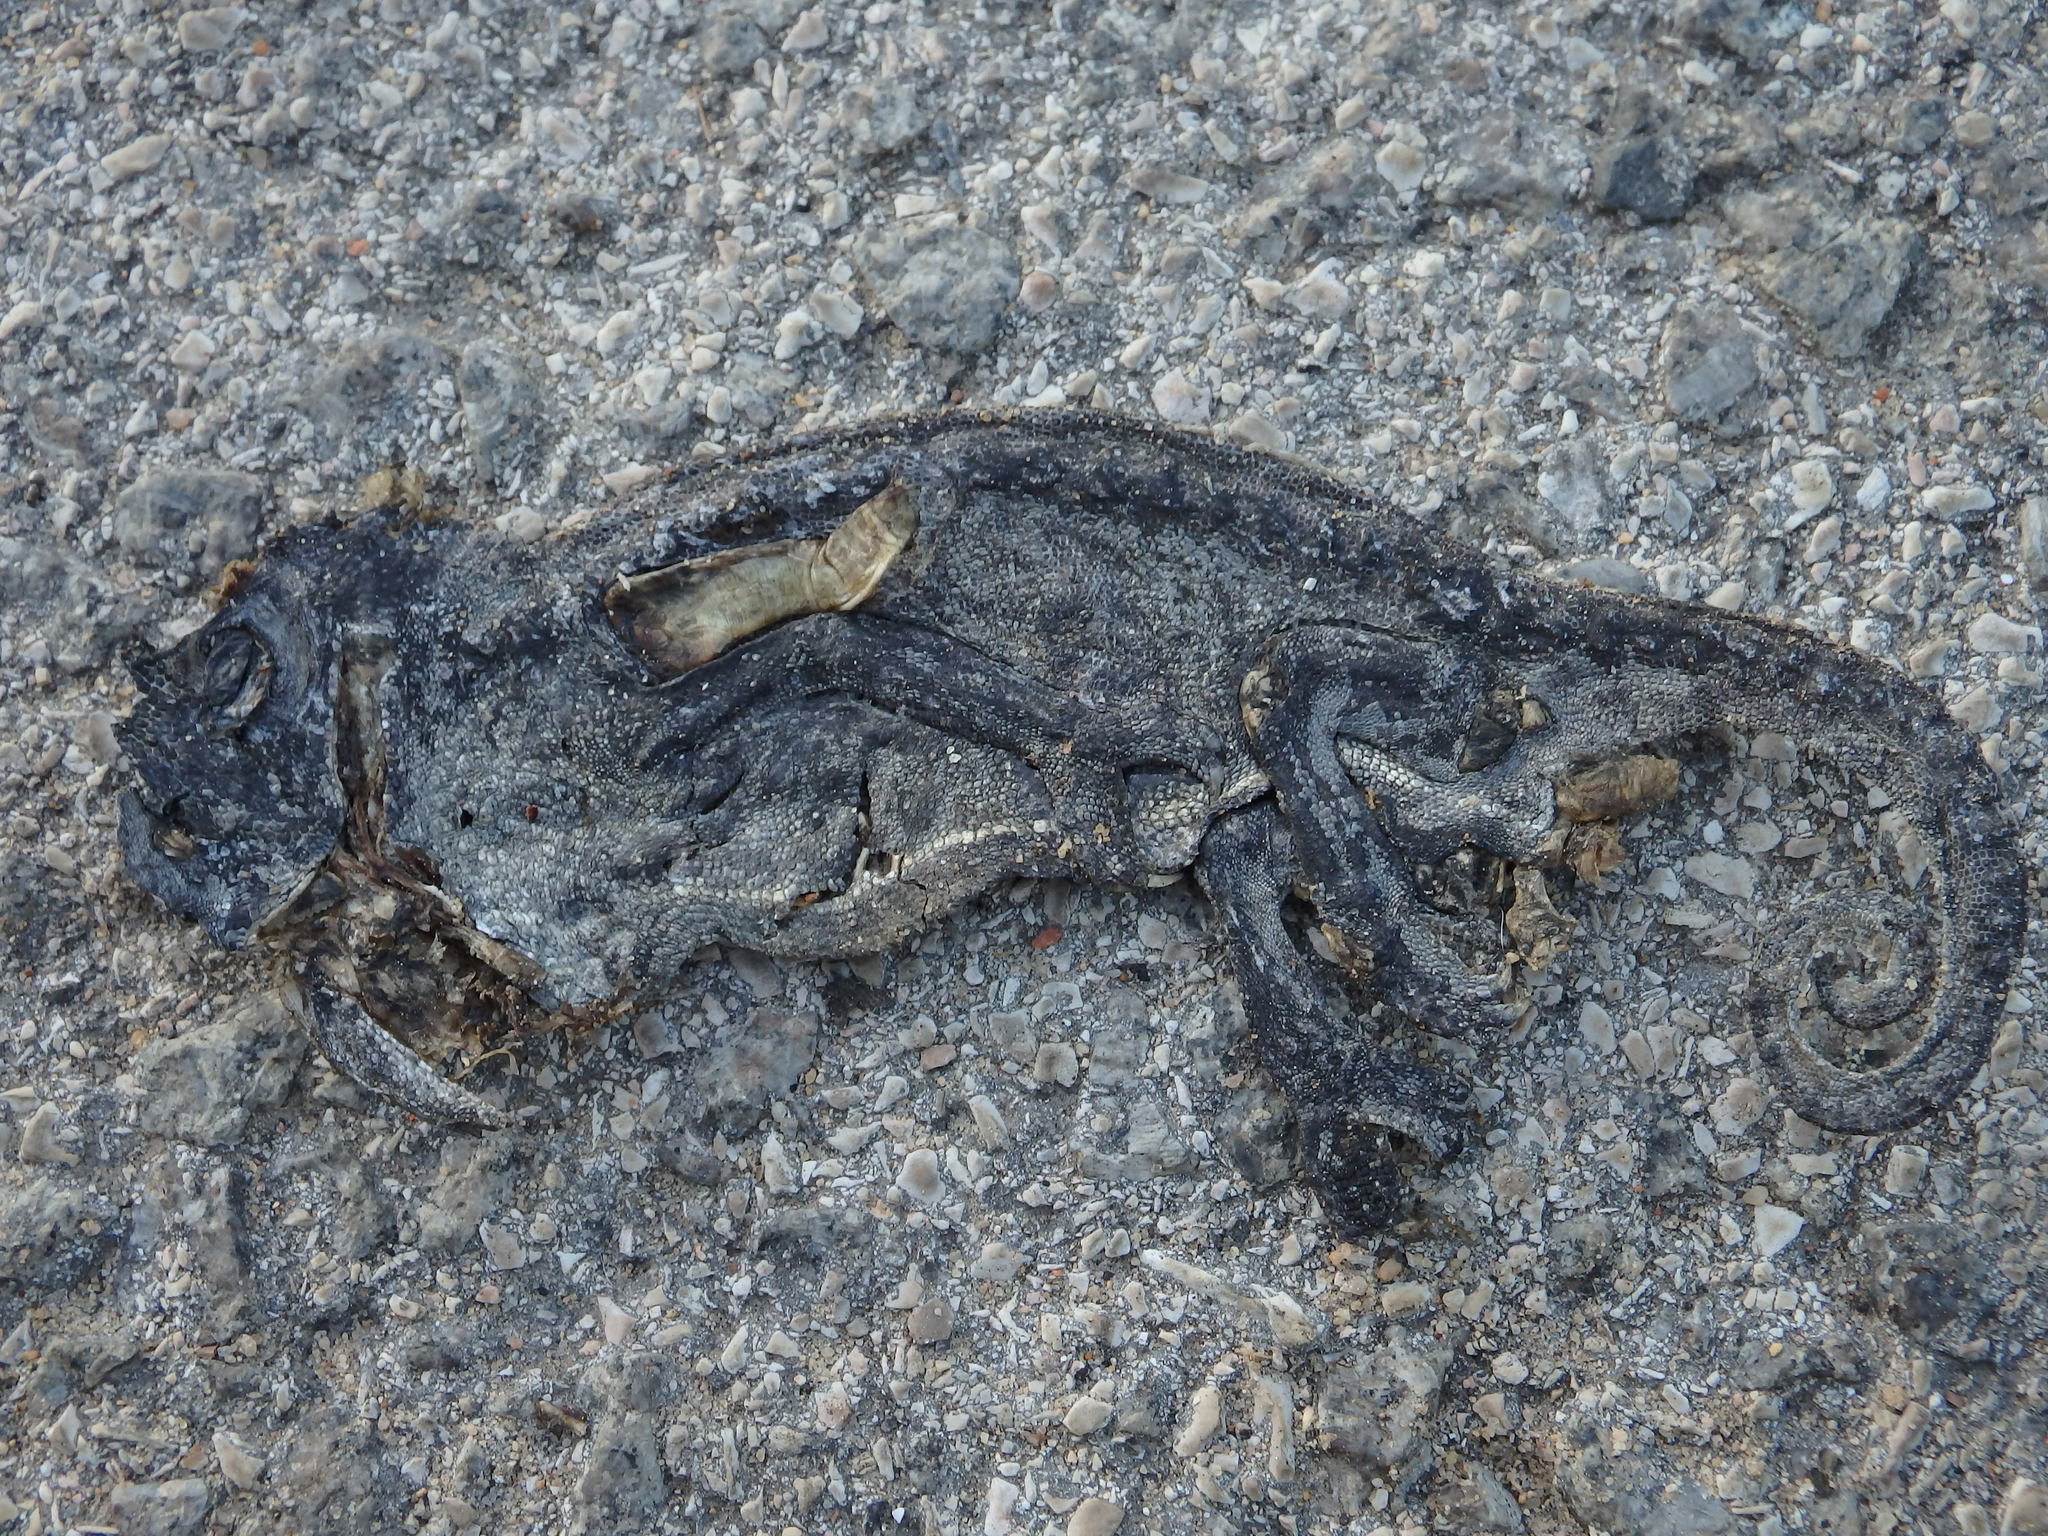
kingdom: Animalia
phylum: Chordata
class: Squamata
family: Chamaeleonidae
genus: Chamaeleo
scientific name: Chamaeleo chamaeleon
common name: Mediterranean chameleon
